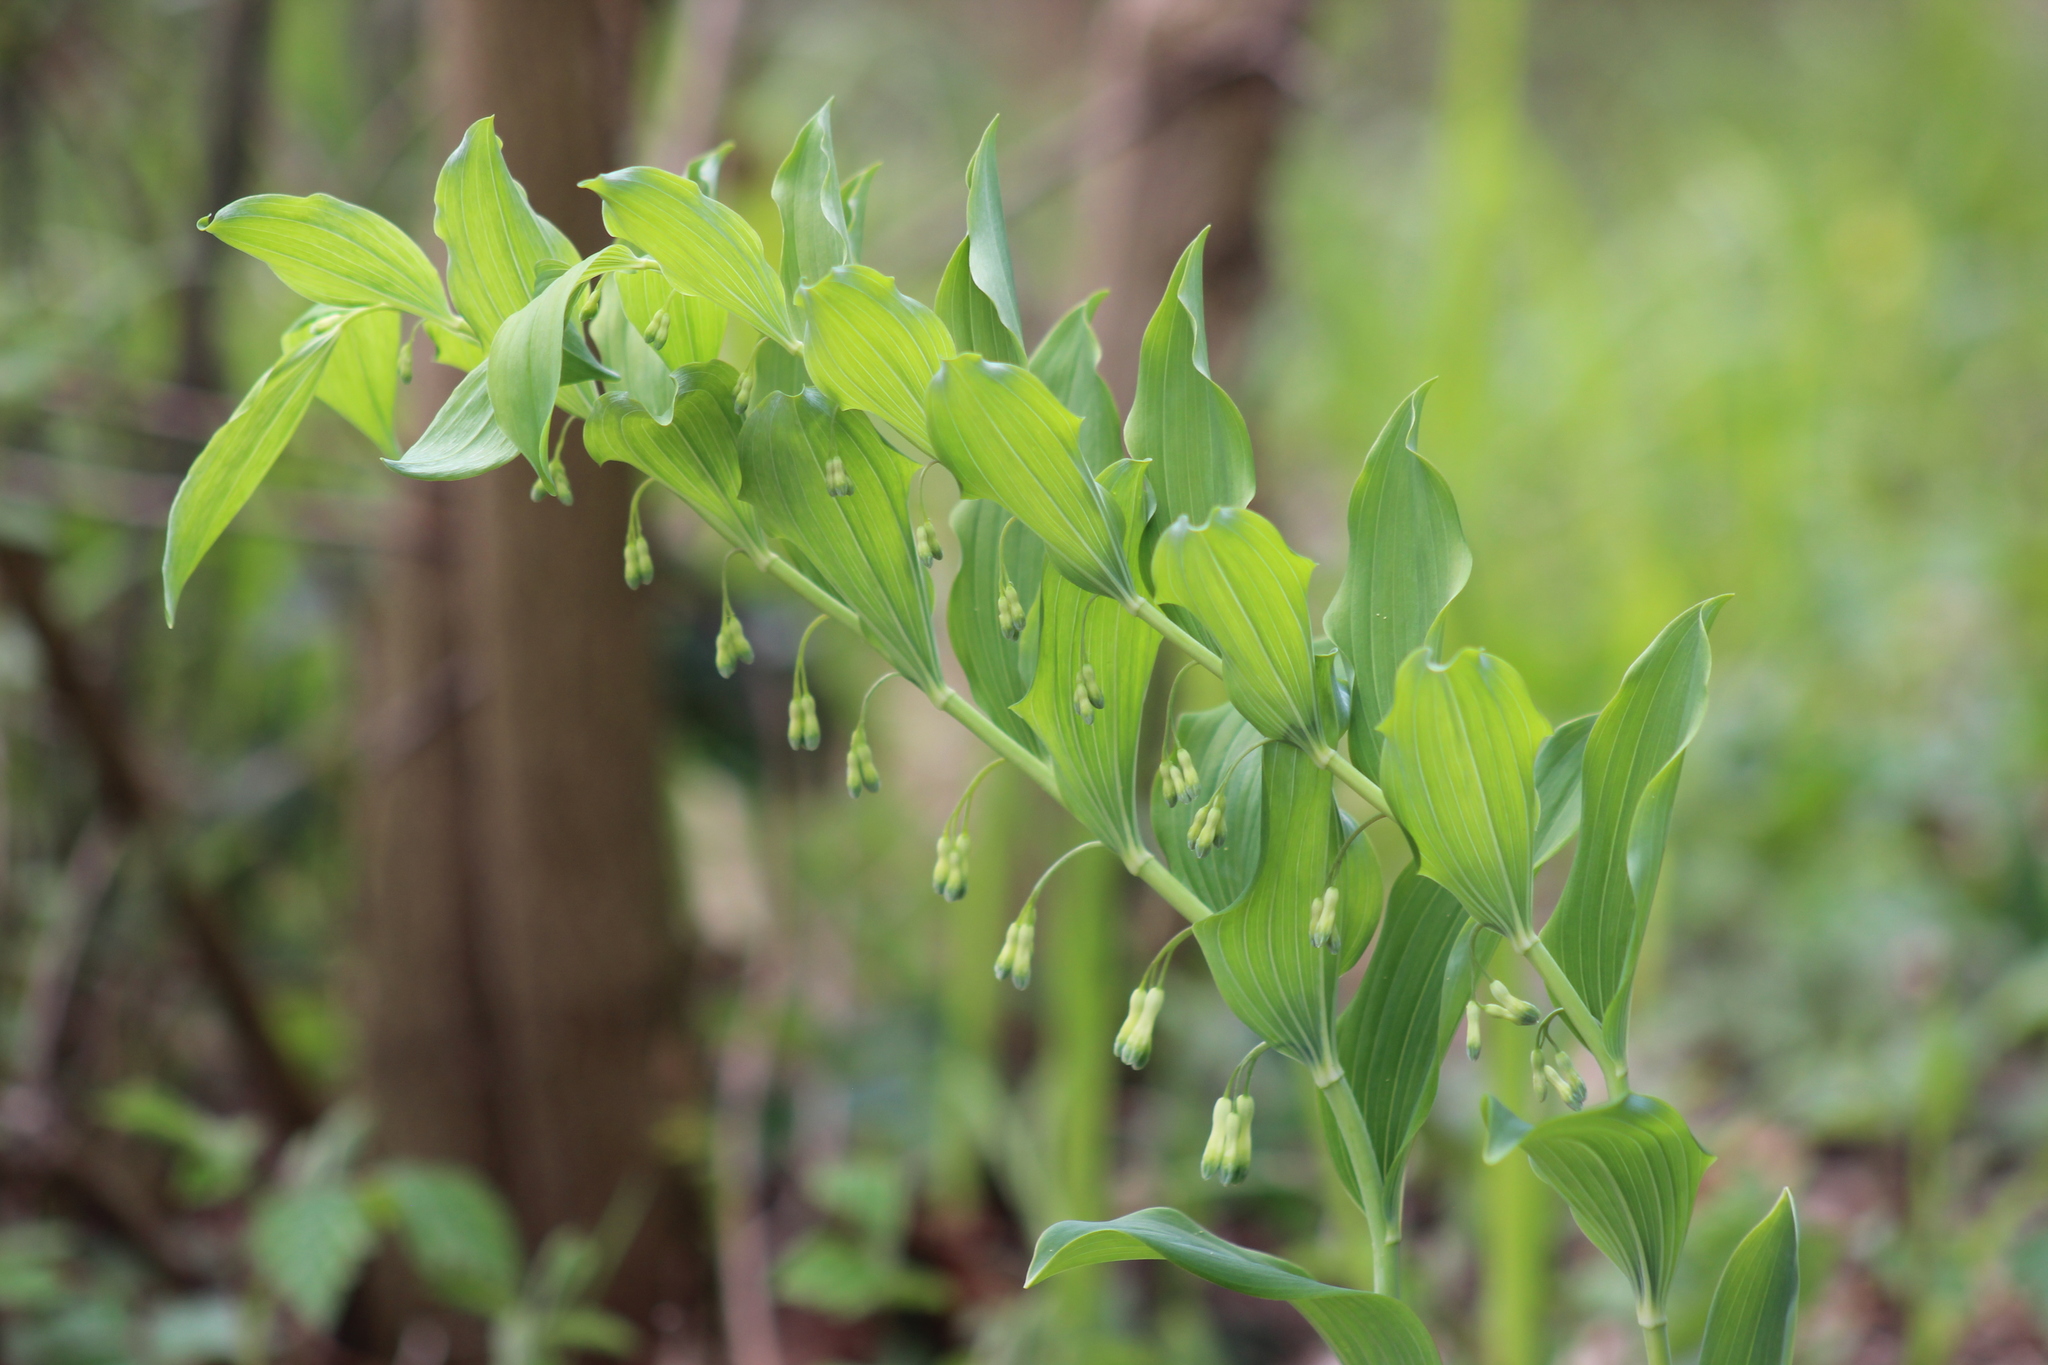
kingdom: Plantae
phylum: Tracheophyta
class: Liliopsida
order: Asparagales
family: Asparagaceae
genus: Polygonatum
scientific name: Polygonatum multiflorum
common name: Solomon's-seal
